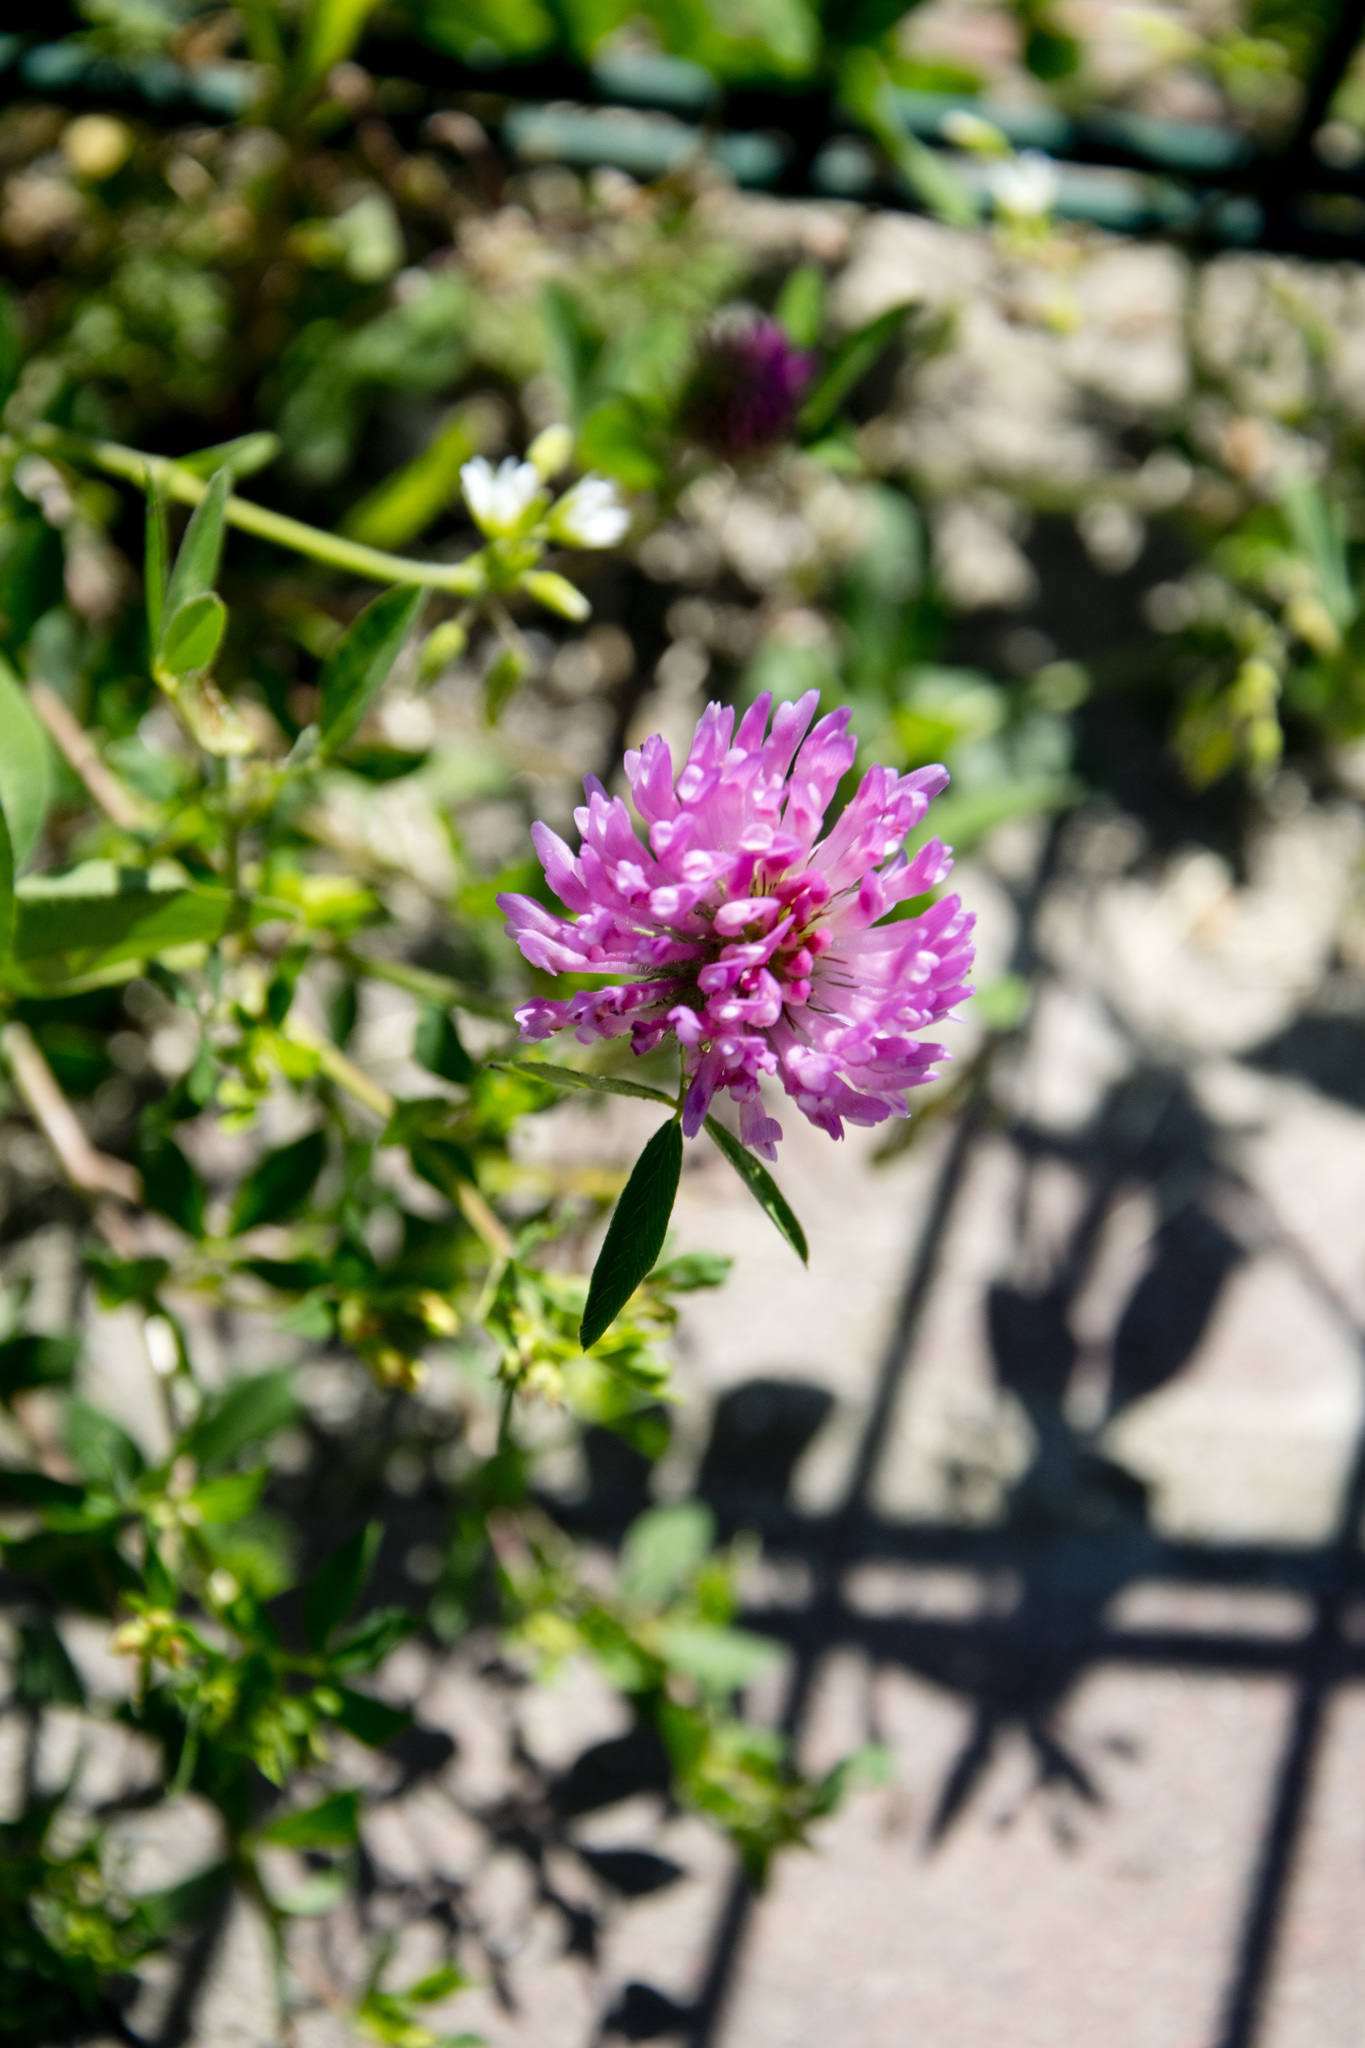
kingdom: Plantae
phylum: Tracheophyta
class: Magnoliopsida
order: Fabales
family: Fabaceae
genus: Trifolium
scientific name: Trifolium pratense
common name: Red clover
